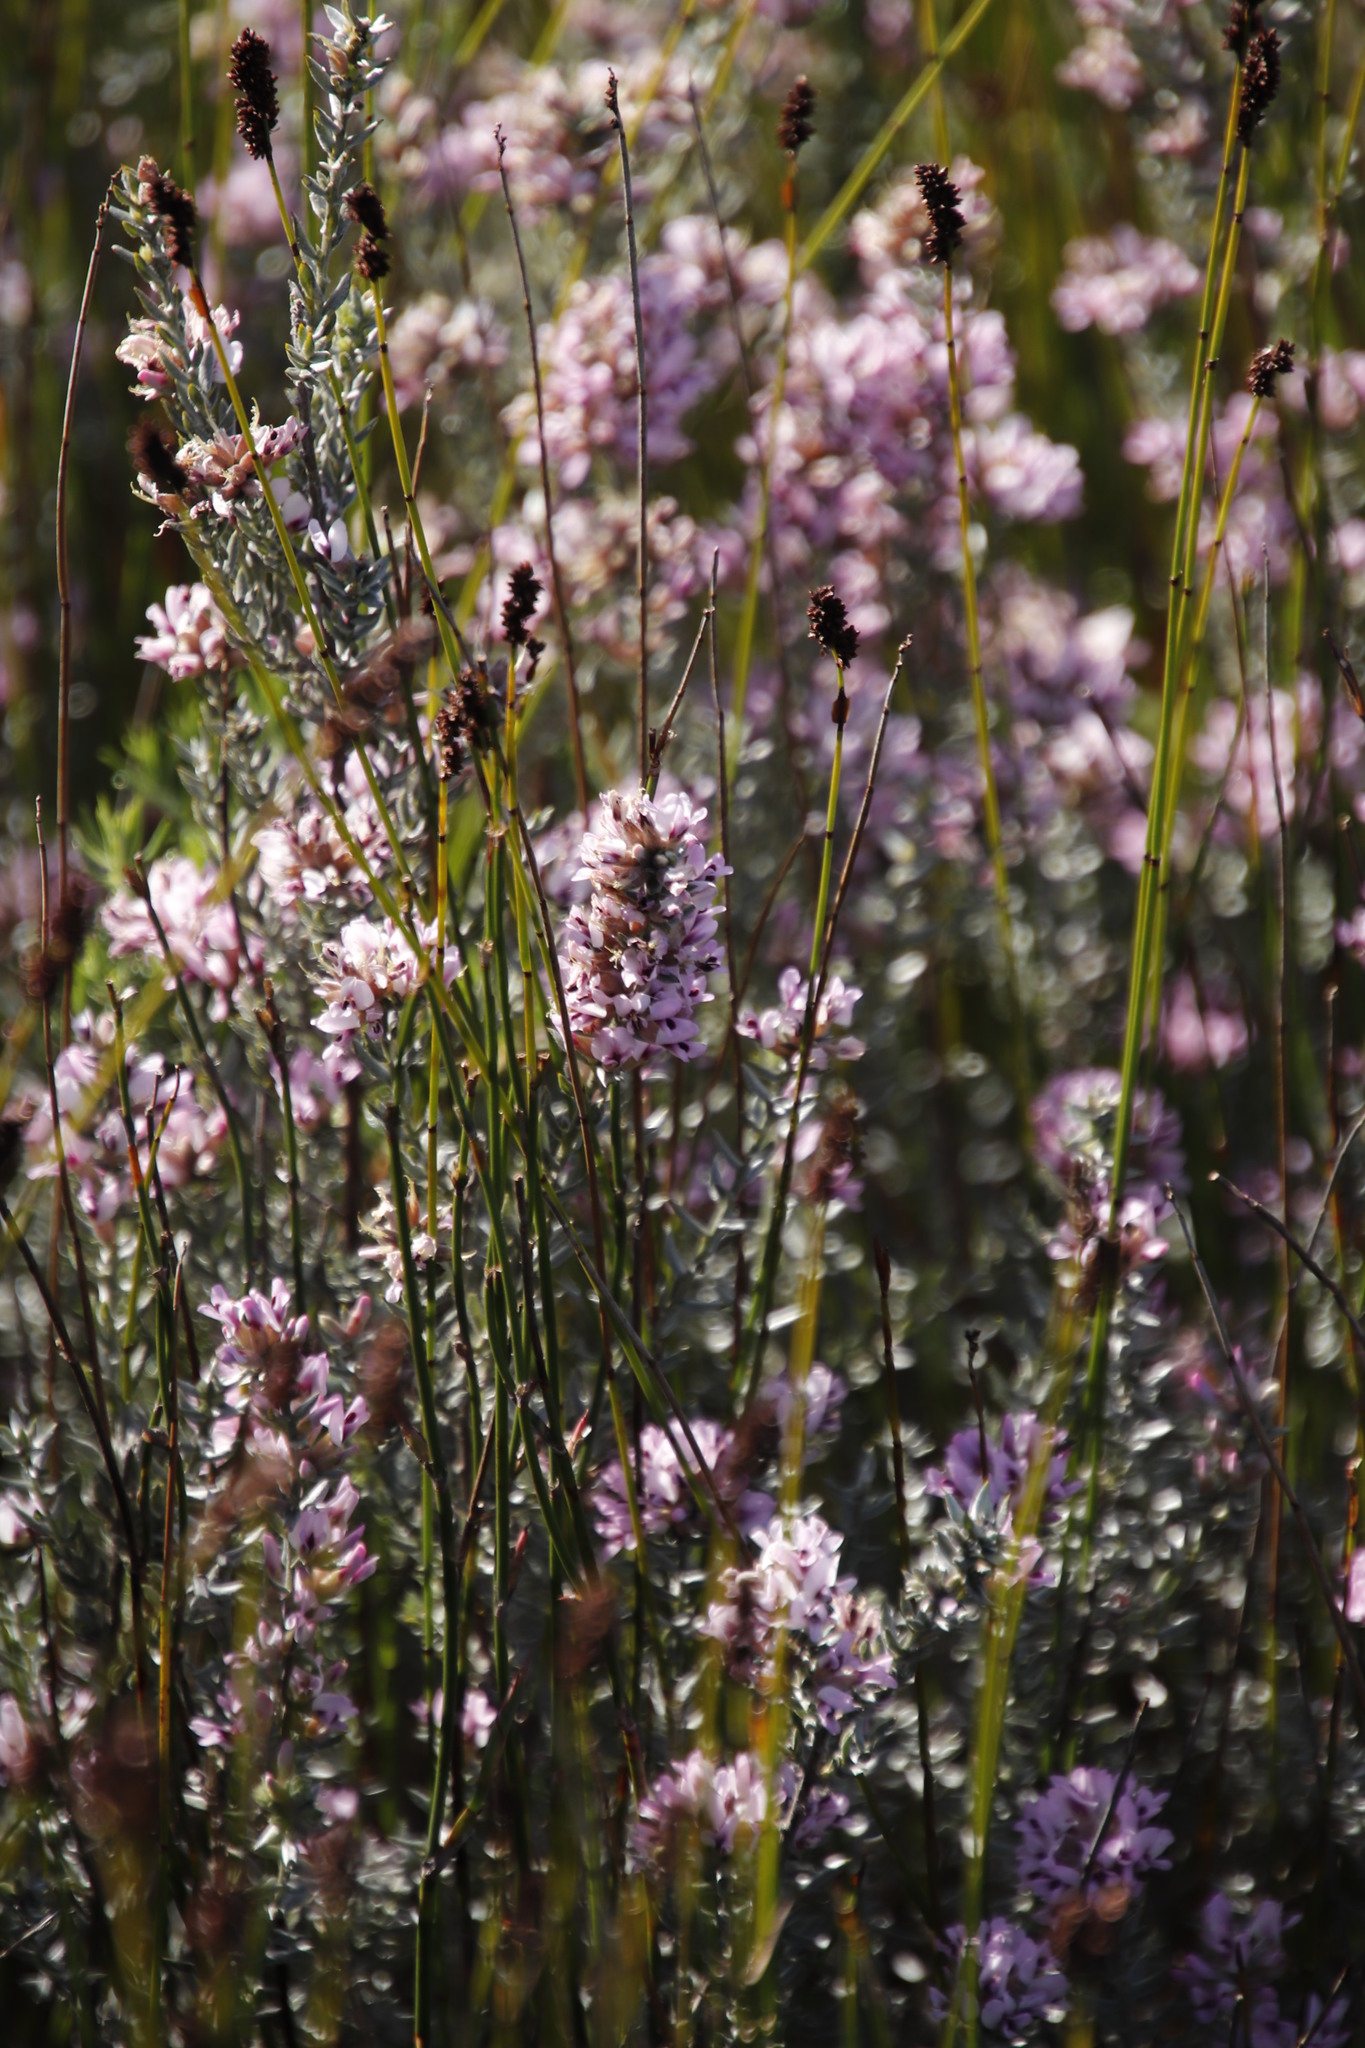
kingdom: Plantae
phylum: Tracheophyta
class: Magnoliopsida
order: Fabales
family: Fabaceae
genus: Amphithalea
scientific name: Amphithalea ericifolia
